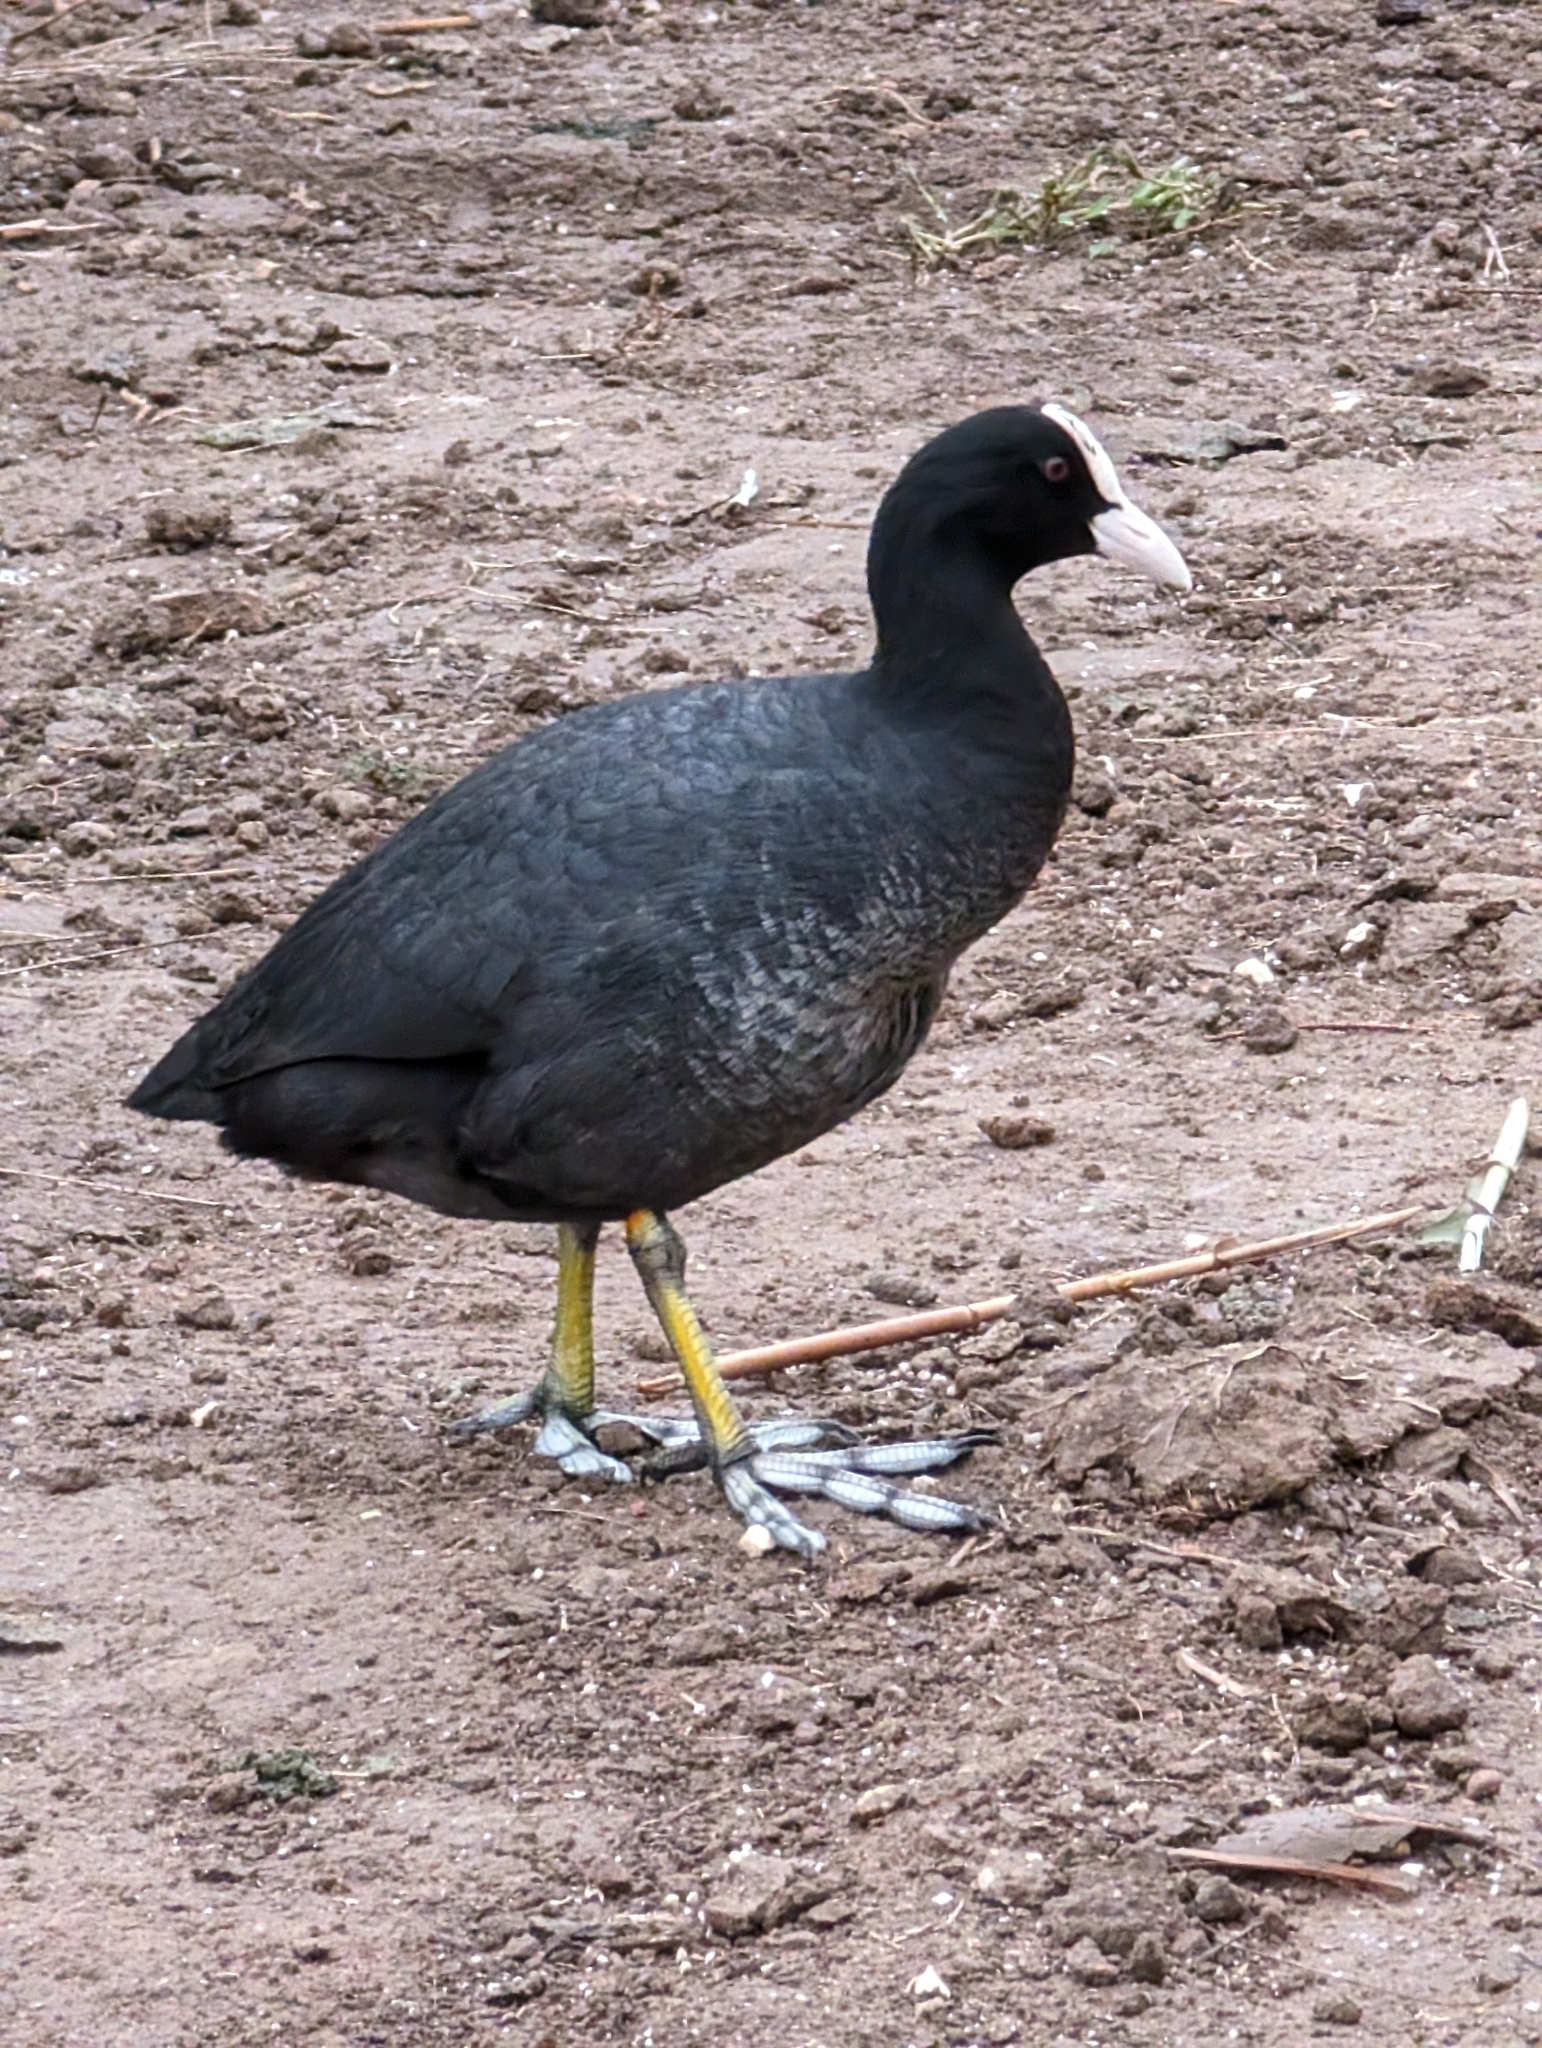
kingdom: Animalia
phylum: Chordata
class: Aves
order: Gruiformes
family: Rallidae
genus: Fulica
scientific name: Fulica atra
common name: Eurasian coot
